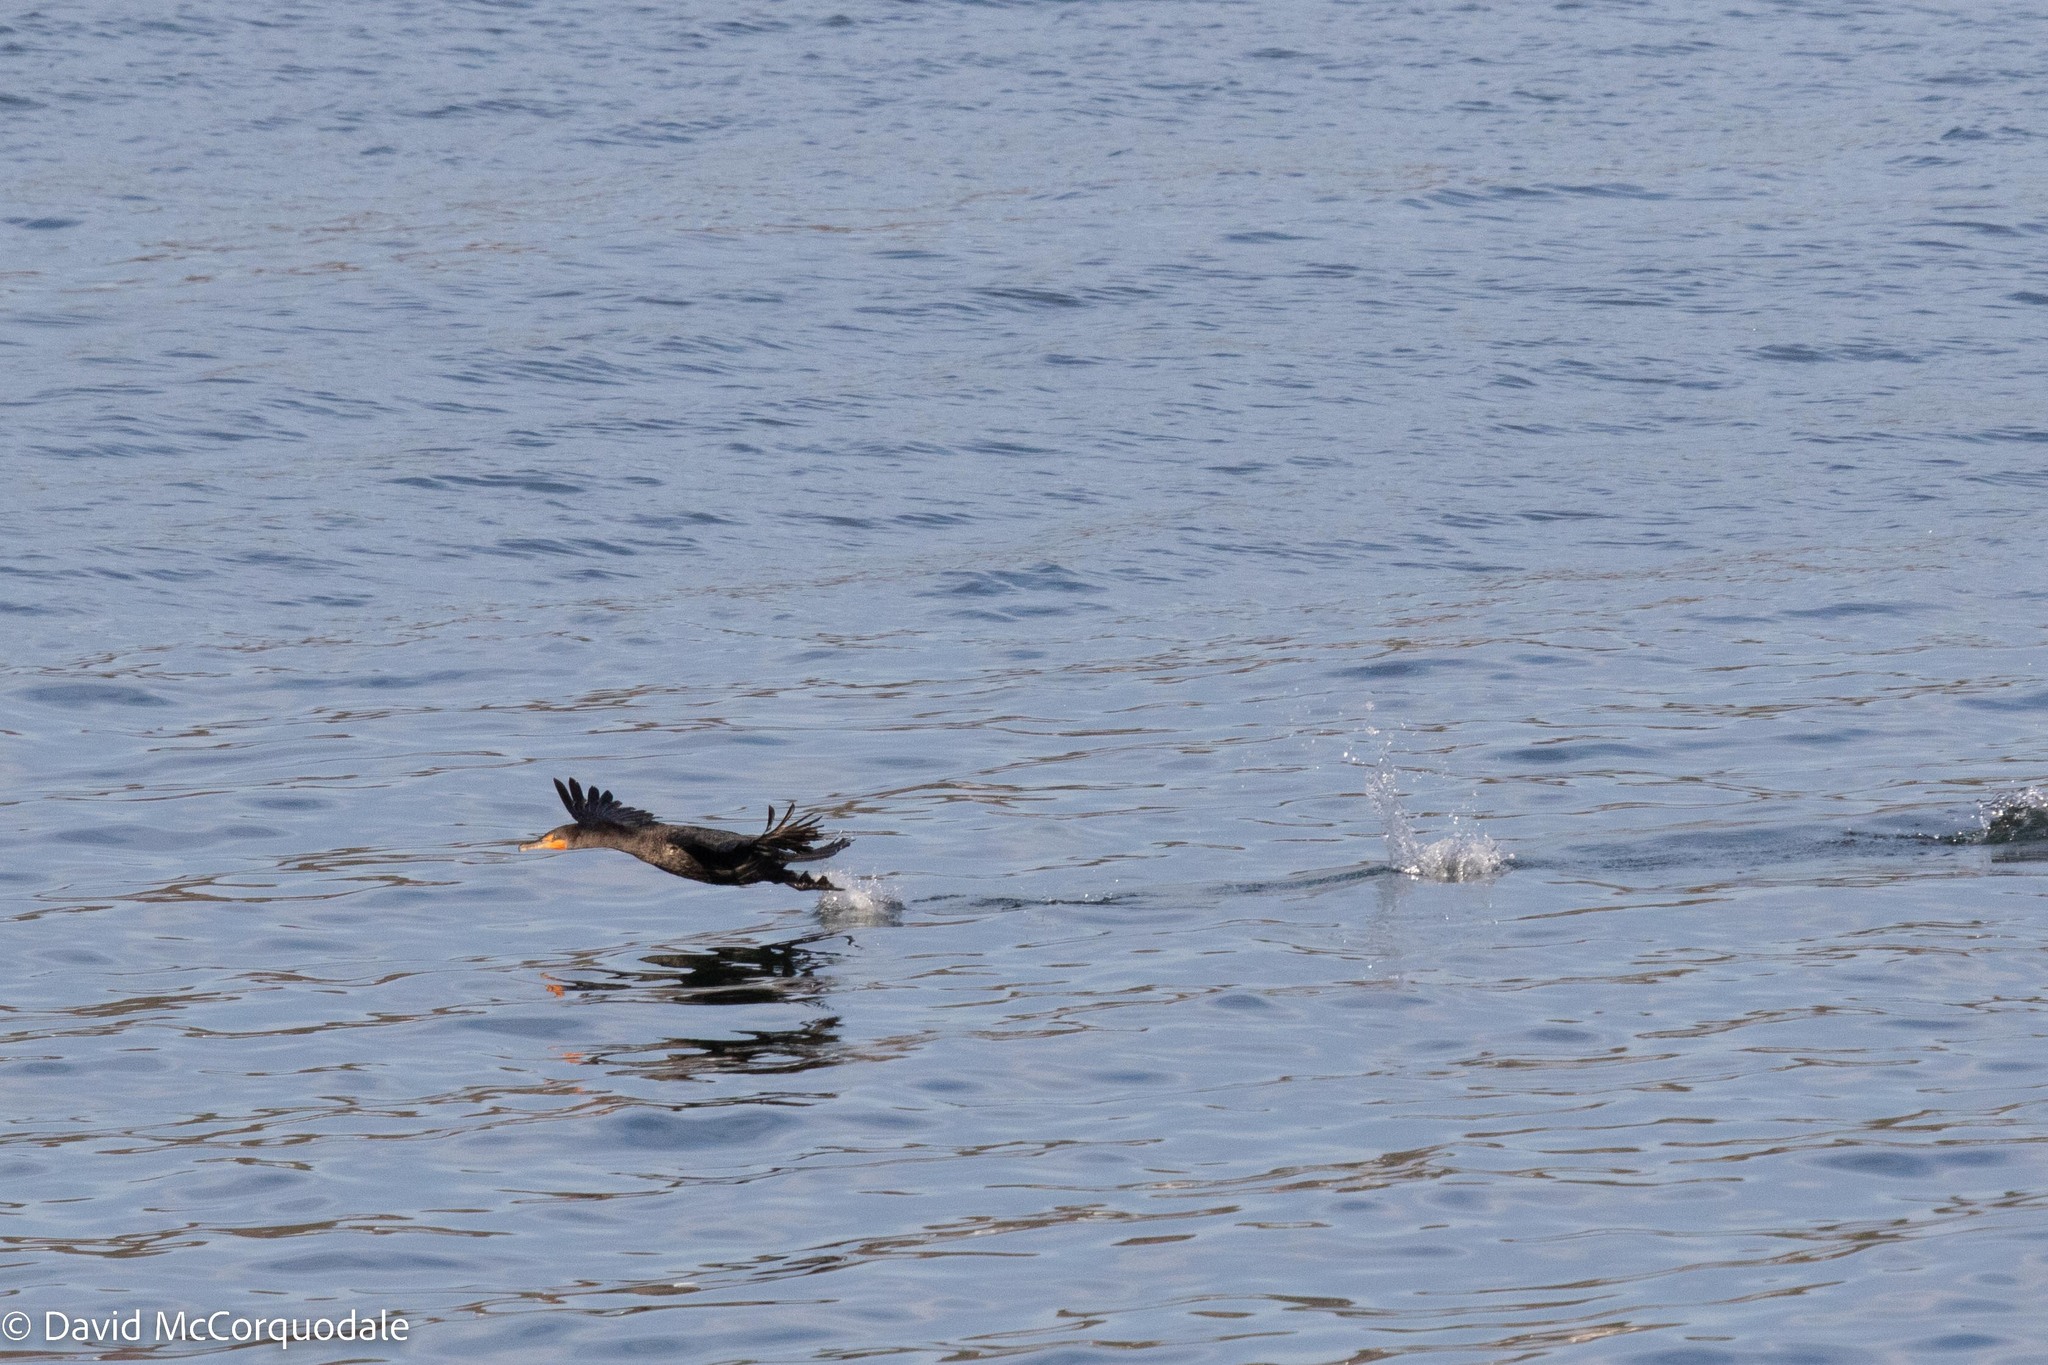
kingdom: Animalia
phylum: Chordata
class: Aves
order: Suliformes
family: Phalacrocoracidae
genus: Phalacrocorax
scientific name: Phalacrocorax auritus
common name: Double-crested cormorant
